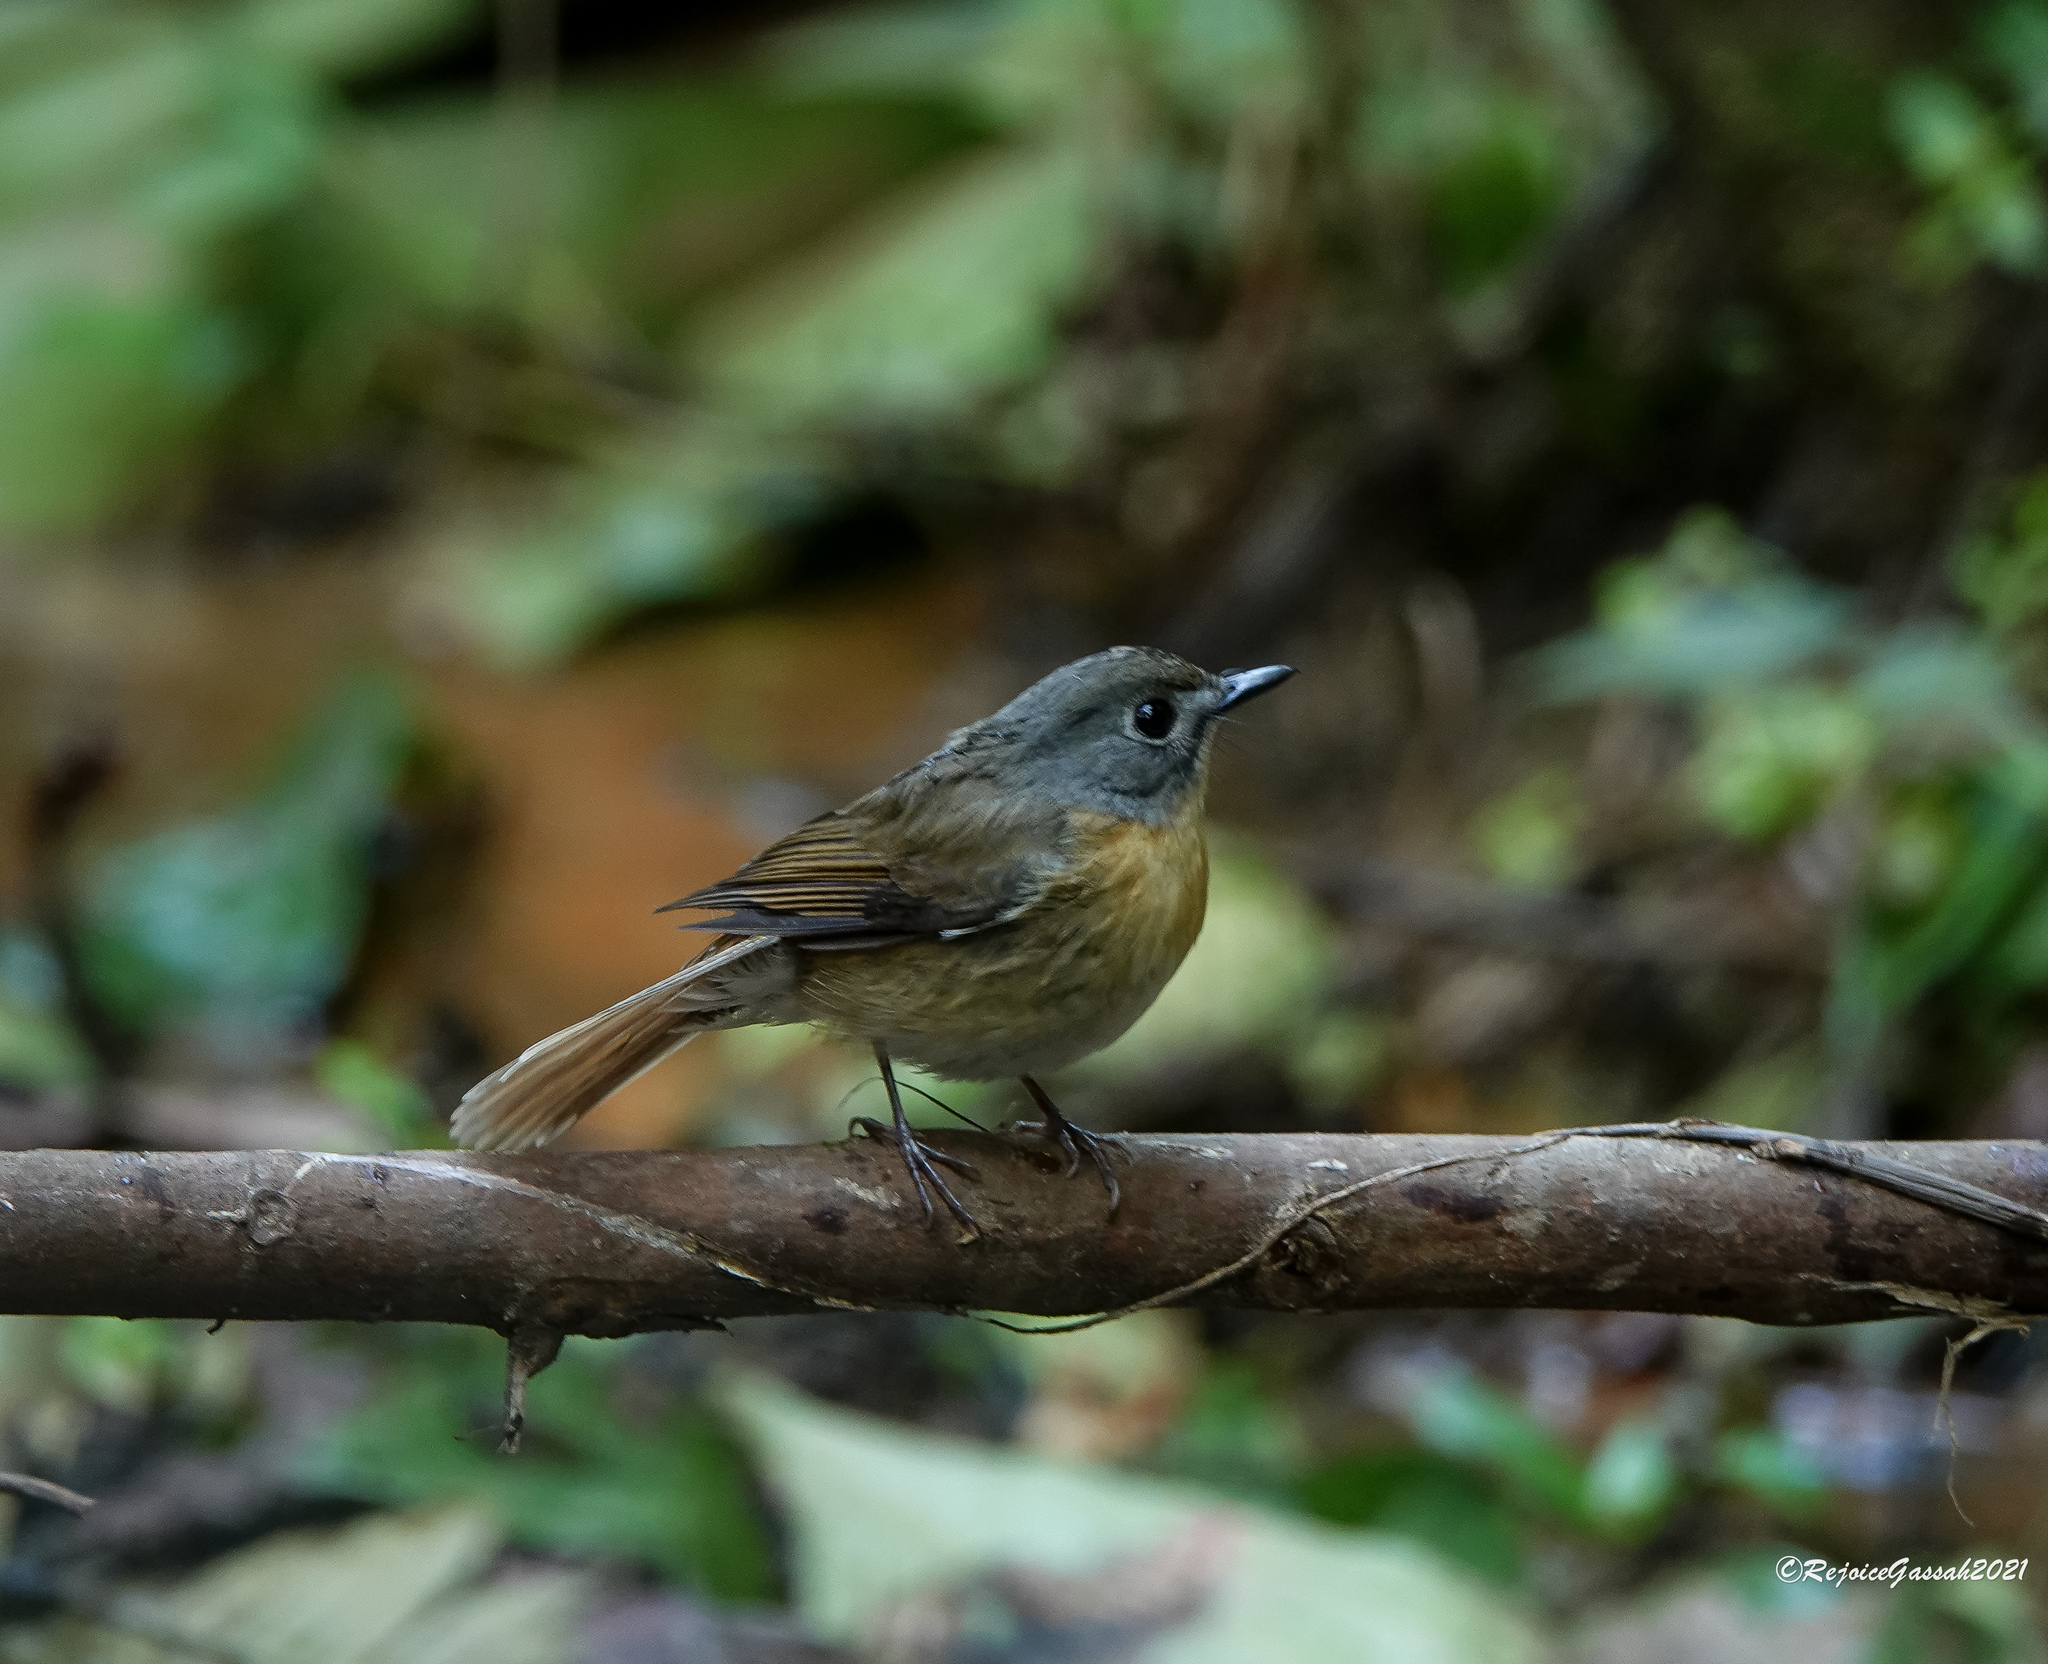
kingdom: Animalia
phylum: Chordata
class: Aves
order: Passeriformes
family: Muscicapidae
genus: Cyornis
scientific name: Cyornis poliogenys
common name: Pale-chinned blue flycatcher
